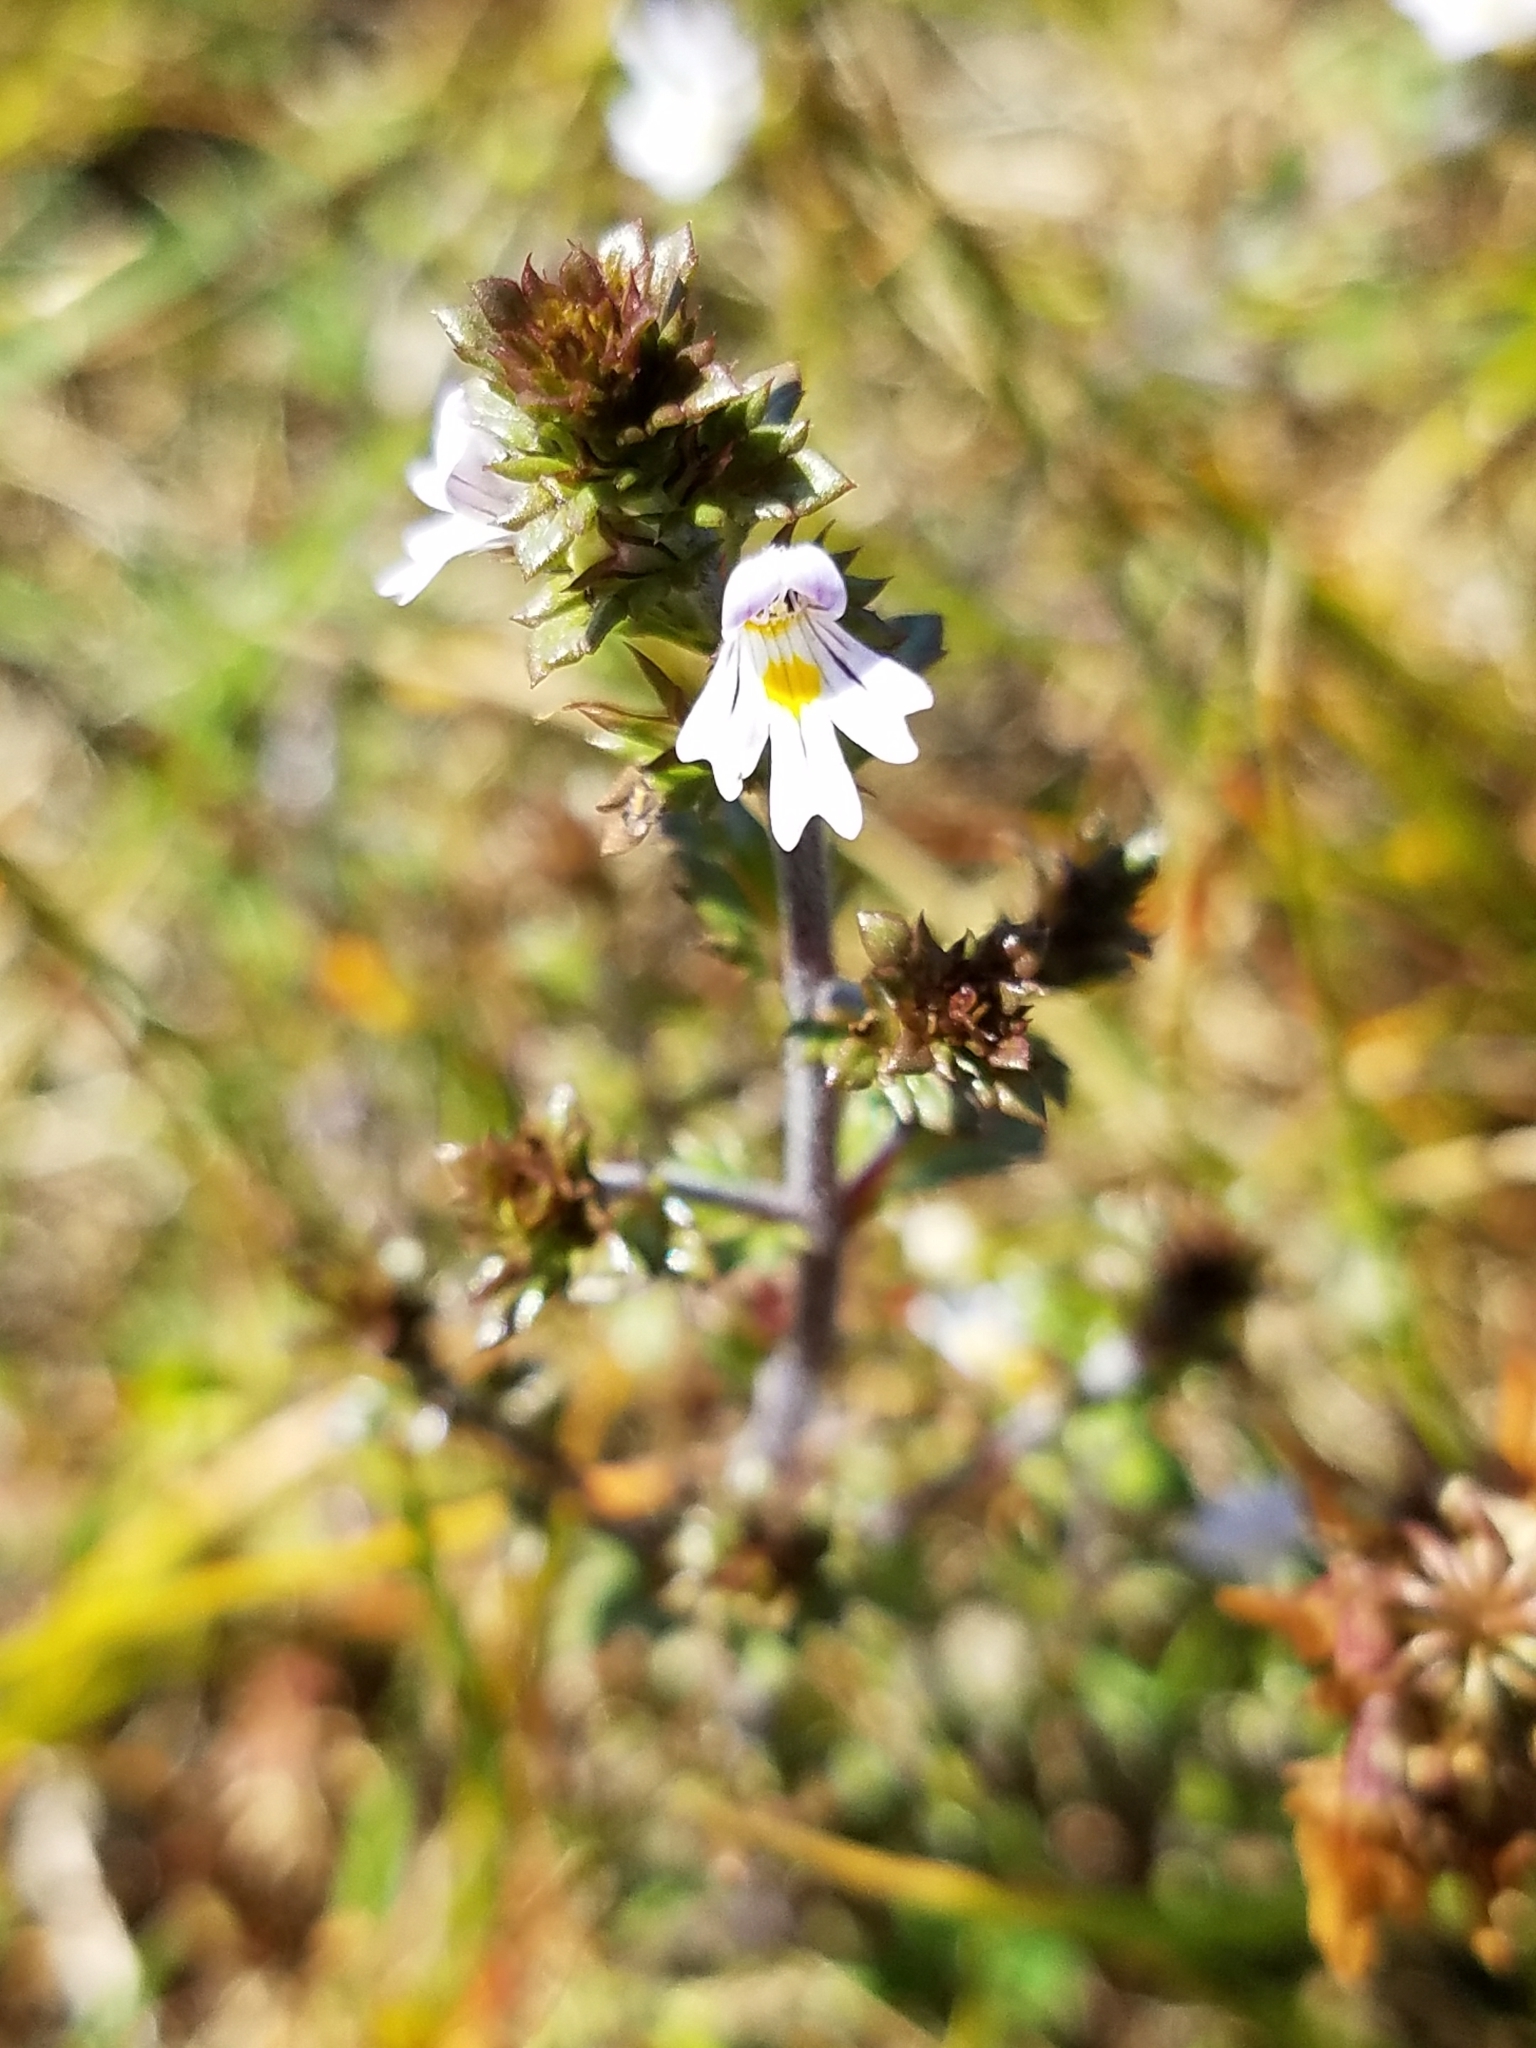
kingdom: Plantae
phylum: Tracheophyta
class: Magnoliopsida
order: Lamiales
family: Orobanchaceae
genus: Euphrasia
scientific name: Euphrasia stricta
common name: Drug eyebright
